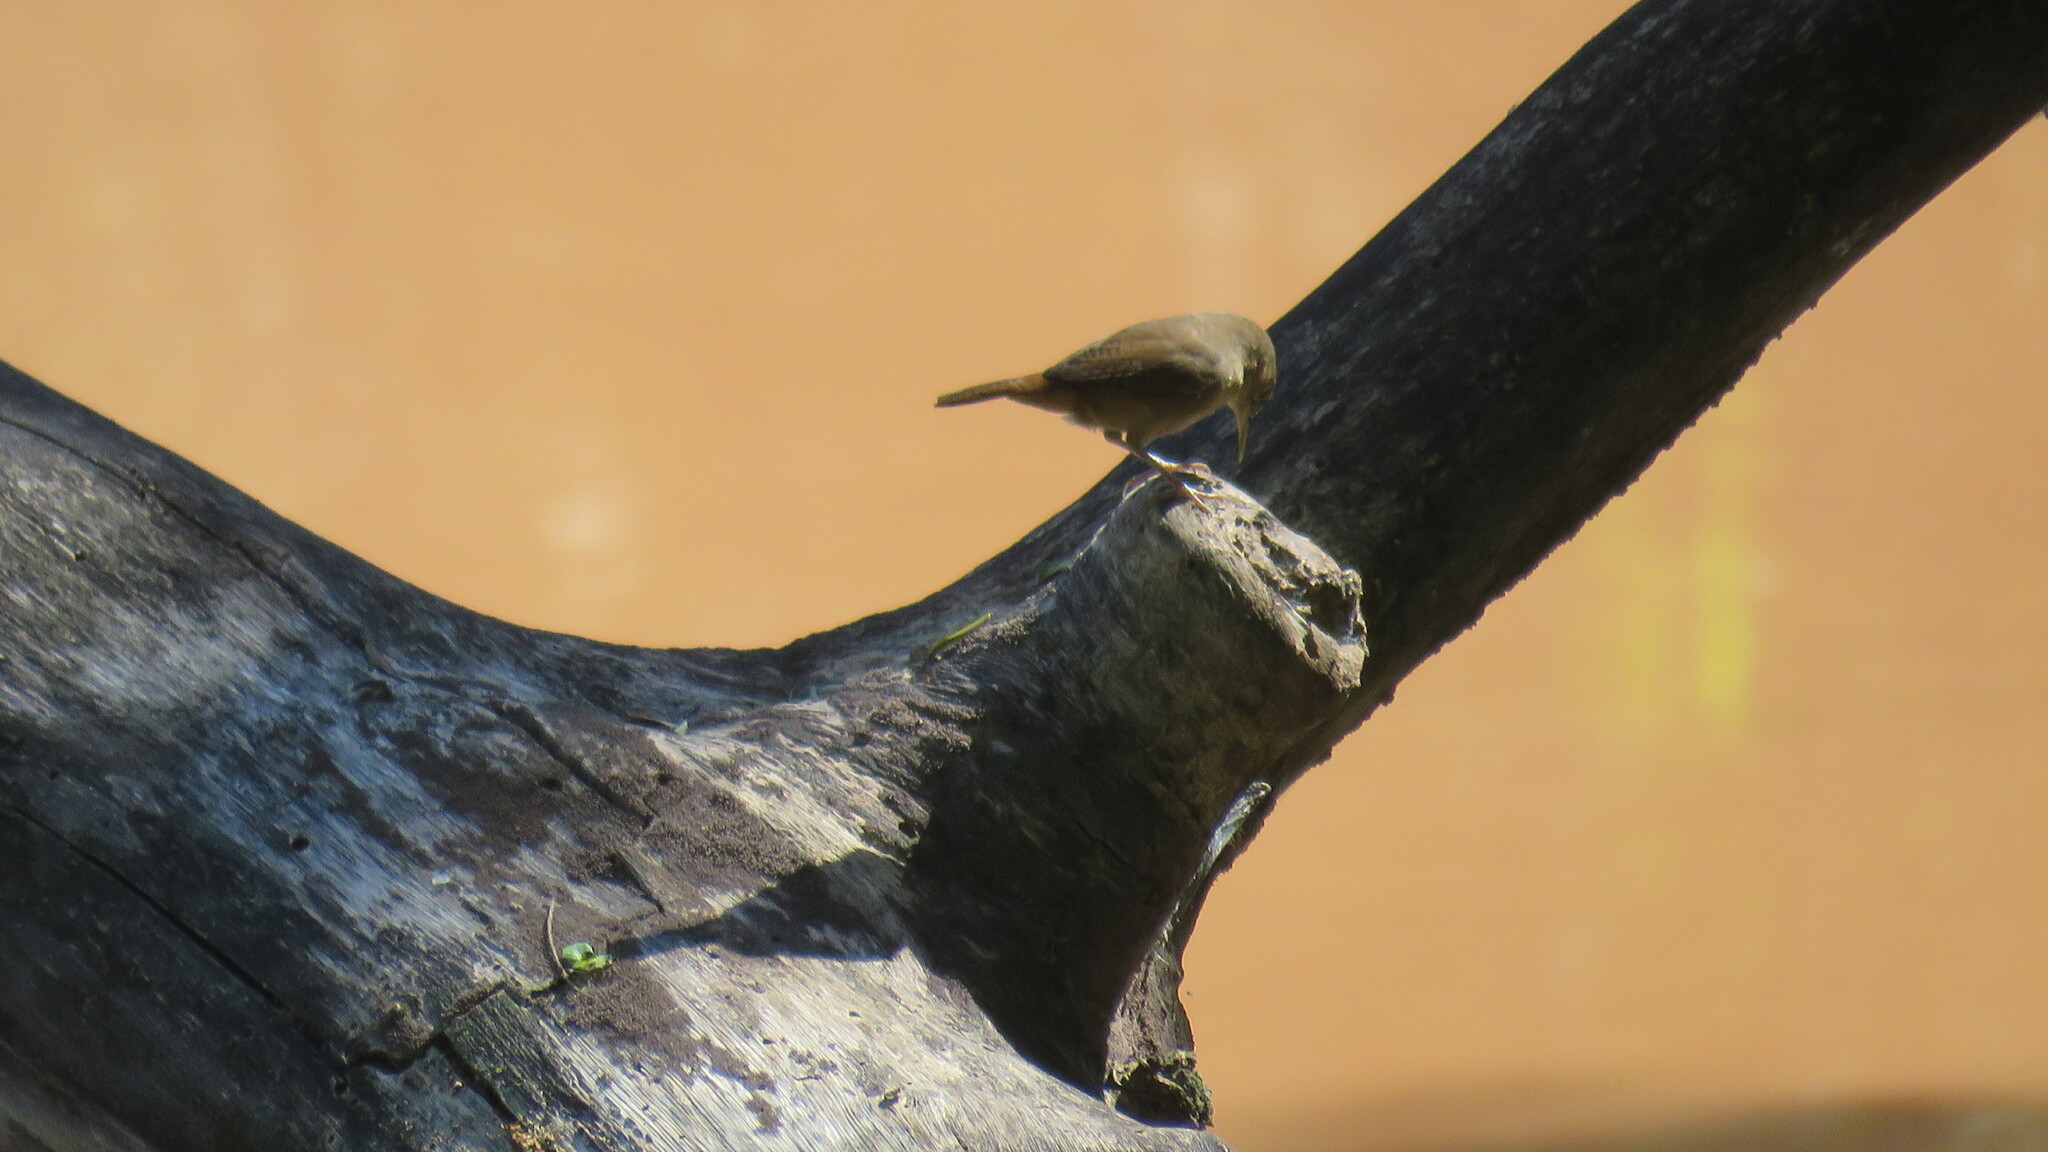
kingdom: Animalia
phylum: Chordata
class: Aves
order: Passeriformes
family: Troglodytidae
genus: Troglodytes
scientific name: Troglodytes aedon
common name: House wren
